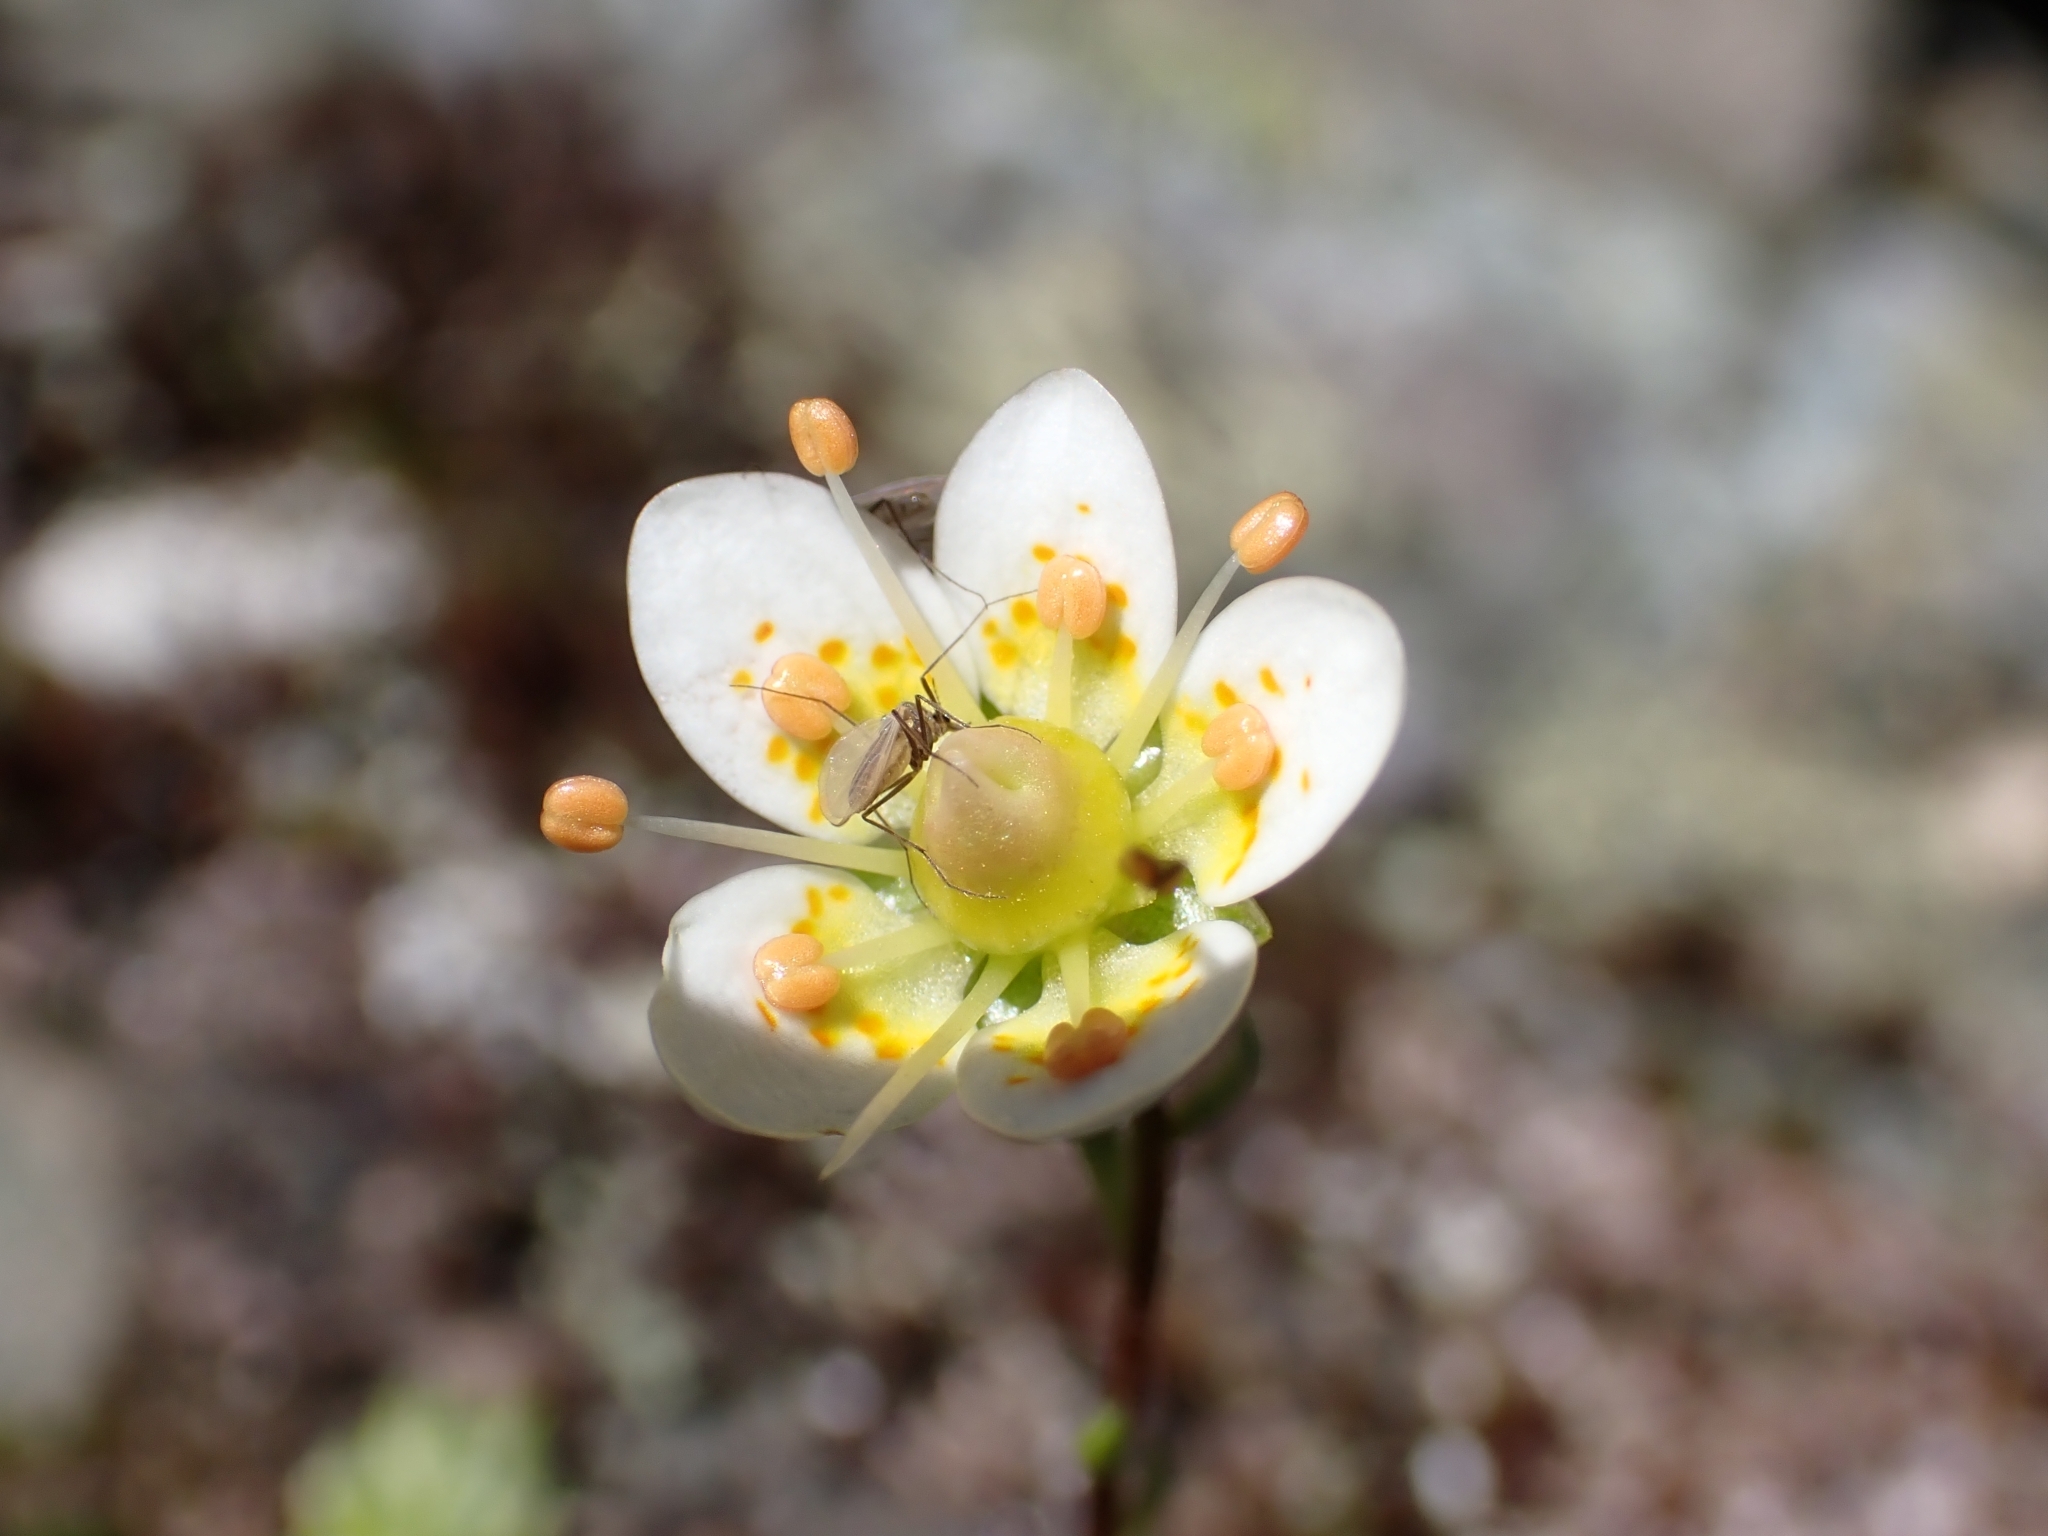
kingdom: Plantae
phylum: Tracheophyta
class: Magnoliopsida
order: Saxifragales
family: Saxifragaceae
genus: Saxifraga
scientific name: Saxifraga bryoides
